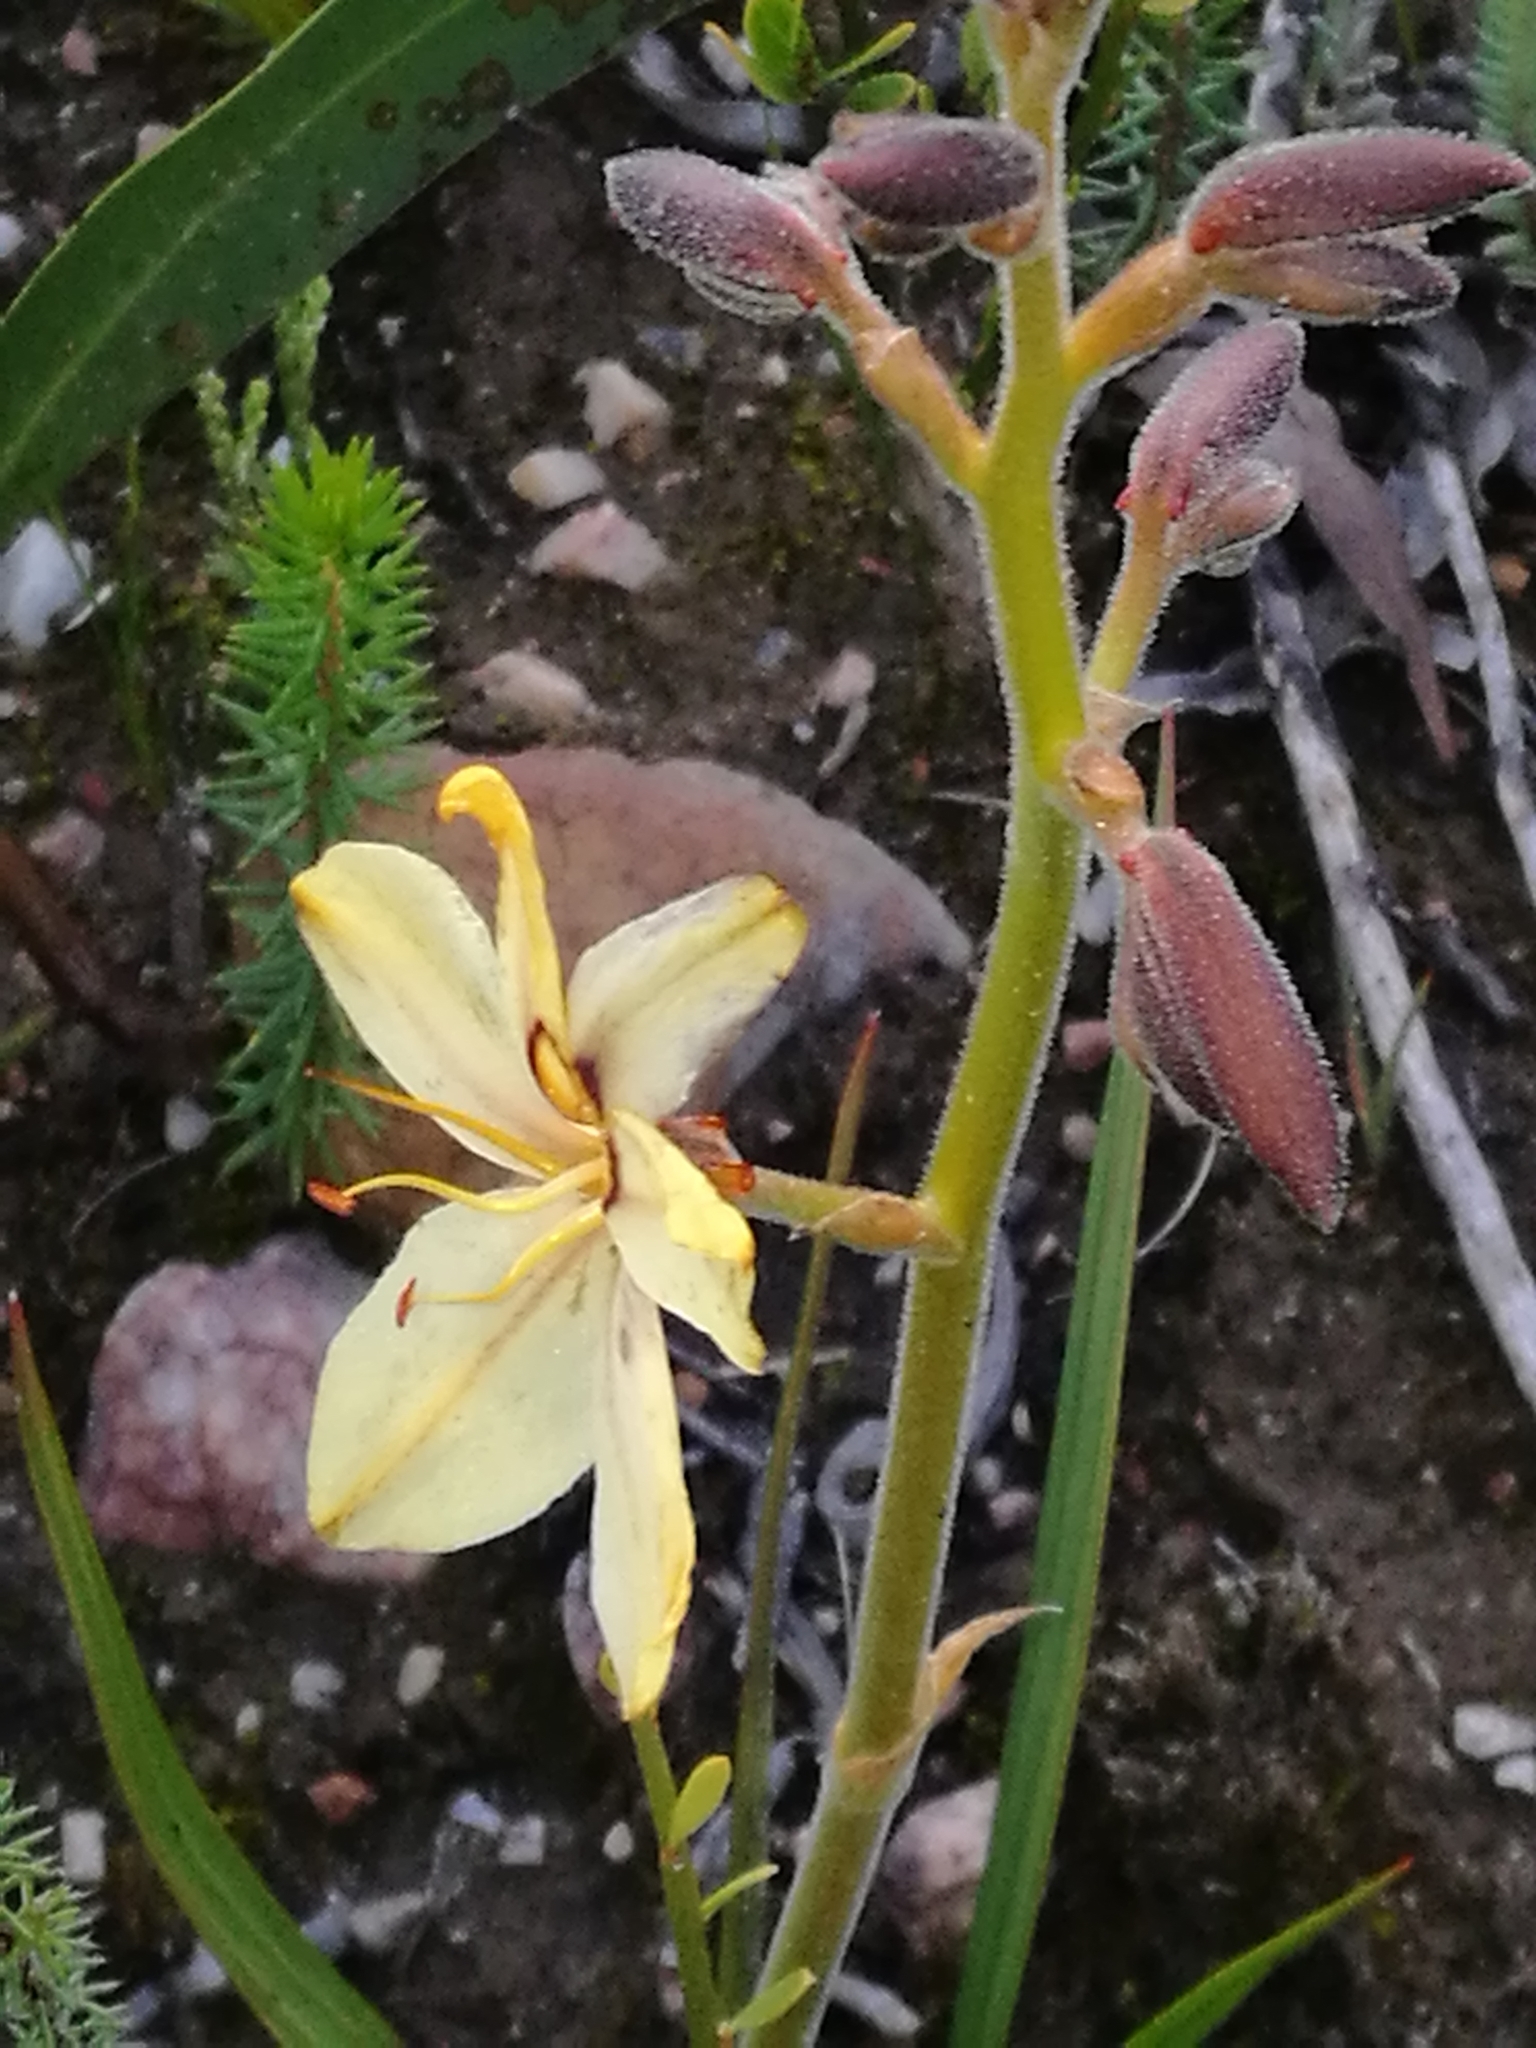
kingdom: Plantae
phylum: Tracheophyta
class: Liliopsida
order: Commelinales
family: Haemodoraceae
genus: Wachendorfia
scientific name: Wachendorfia paniculata
